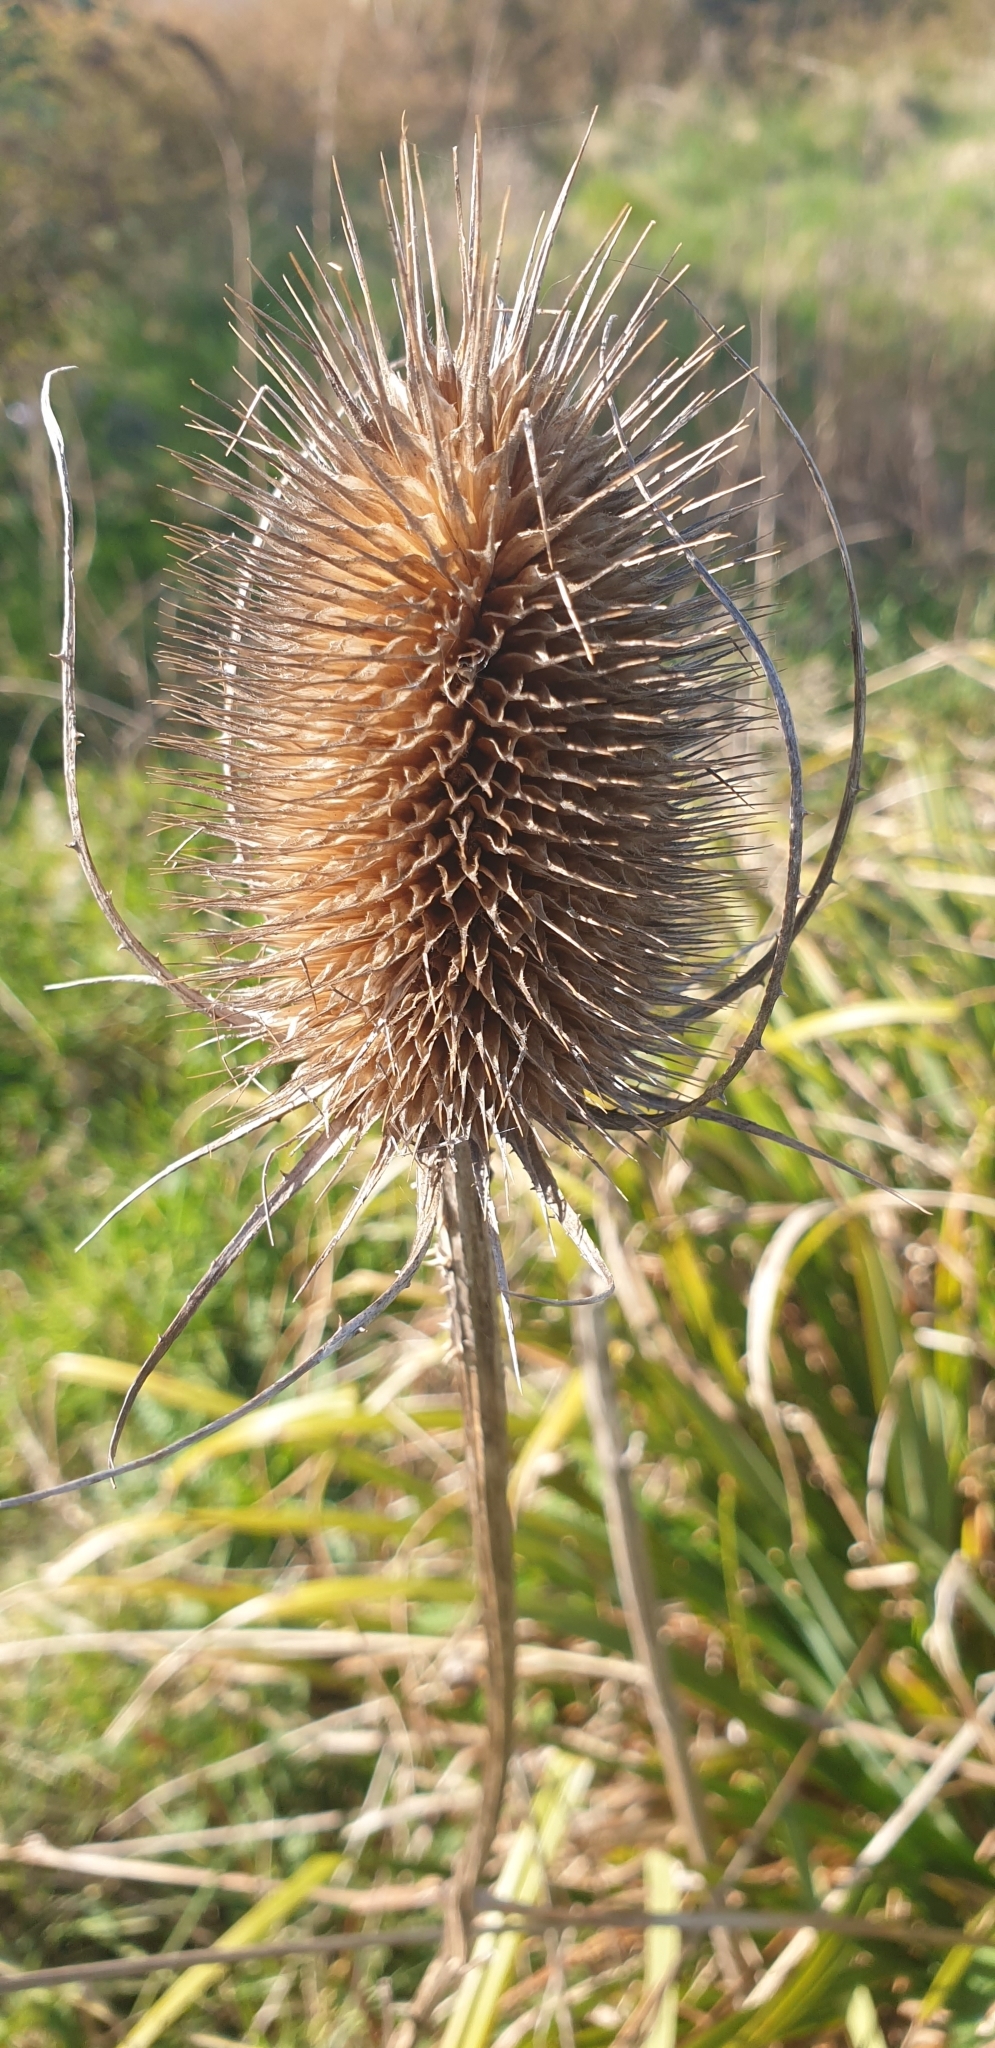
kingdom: Plantae
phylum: Tracheophyta
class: Magnoliopsida
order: Dipsacales
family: Caprifoliaceae
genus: Dipsacus
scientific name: Dipsacus fullonum
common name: Teasel
